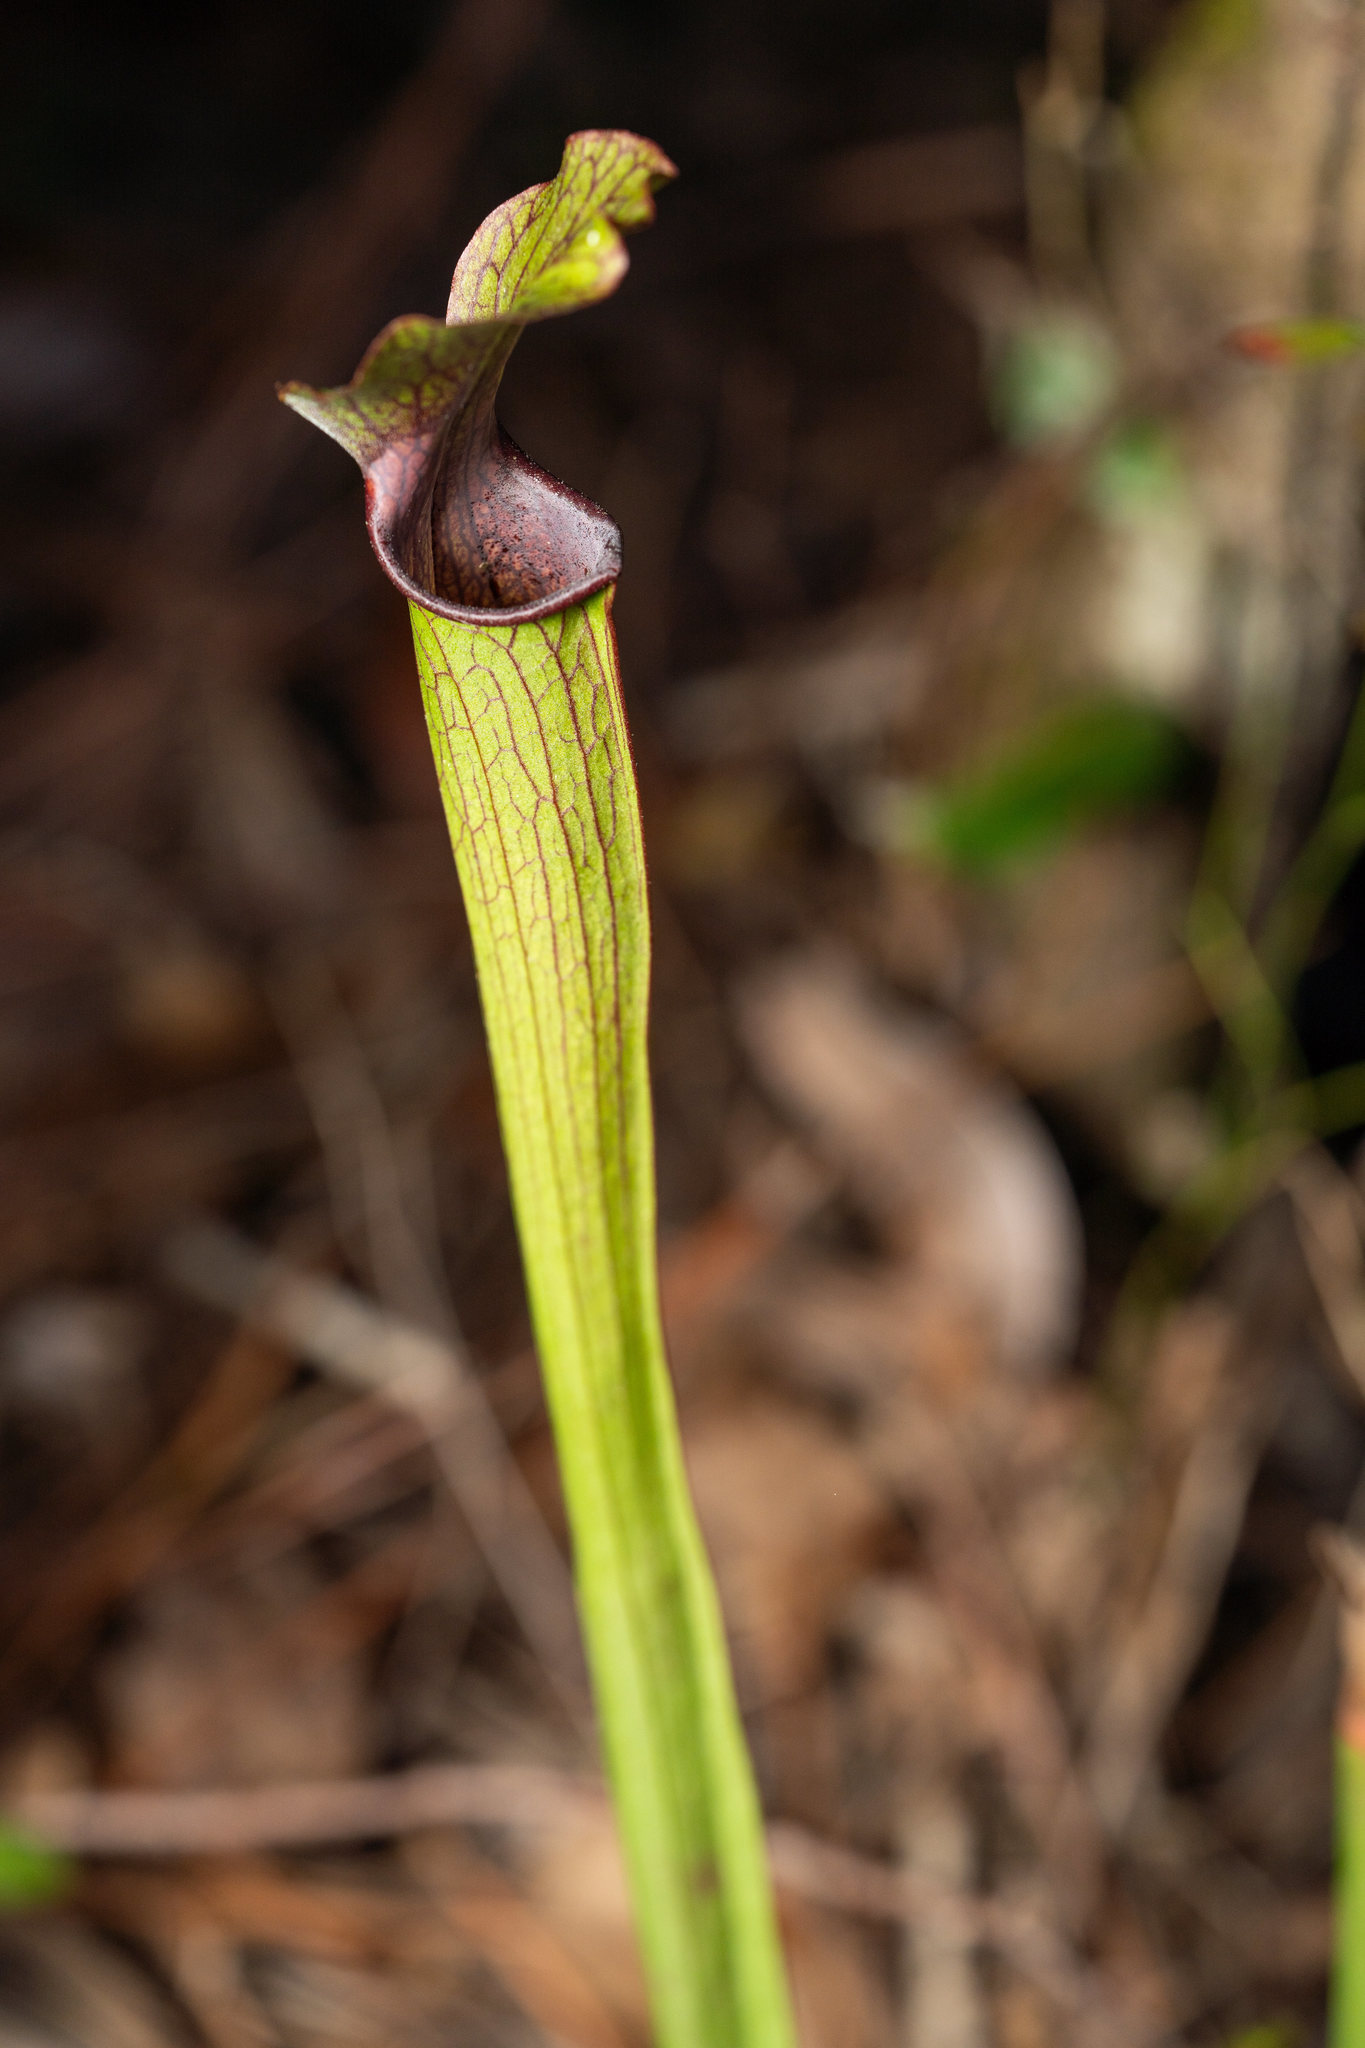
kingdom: Plantae
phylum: Tracheophyta
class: Magnoliopsida
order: Ericales
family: Sarraceniaceae
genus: Sarracenia
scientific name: Sarracenia rubra
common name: Sweet pitcherplant
